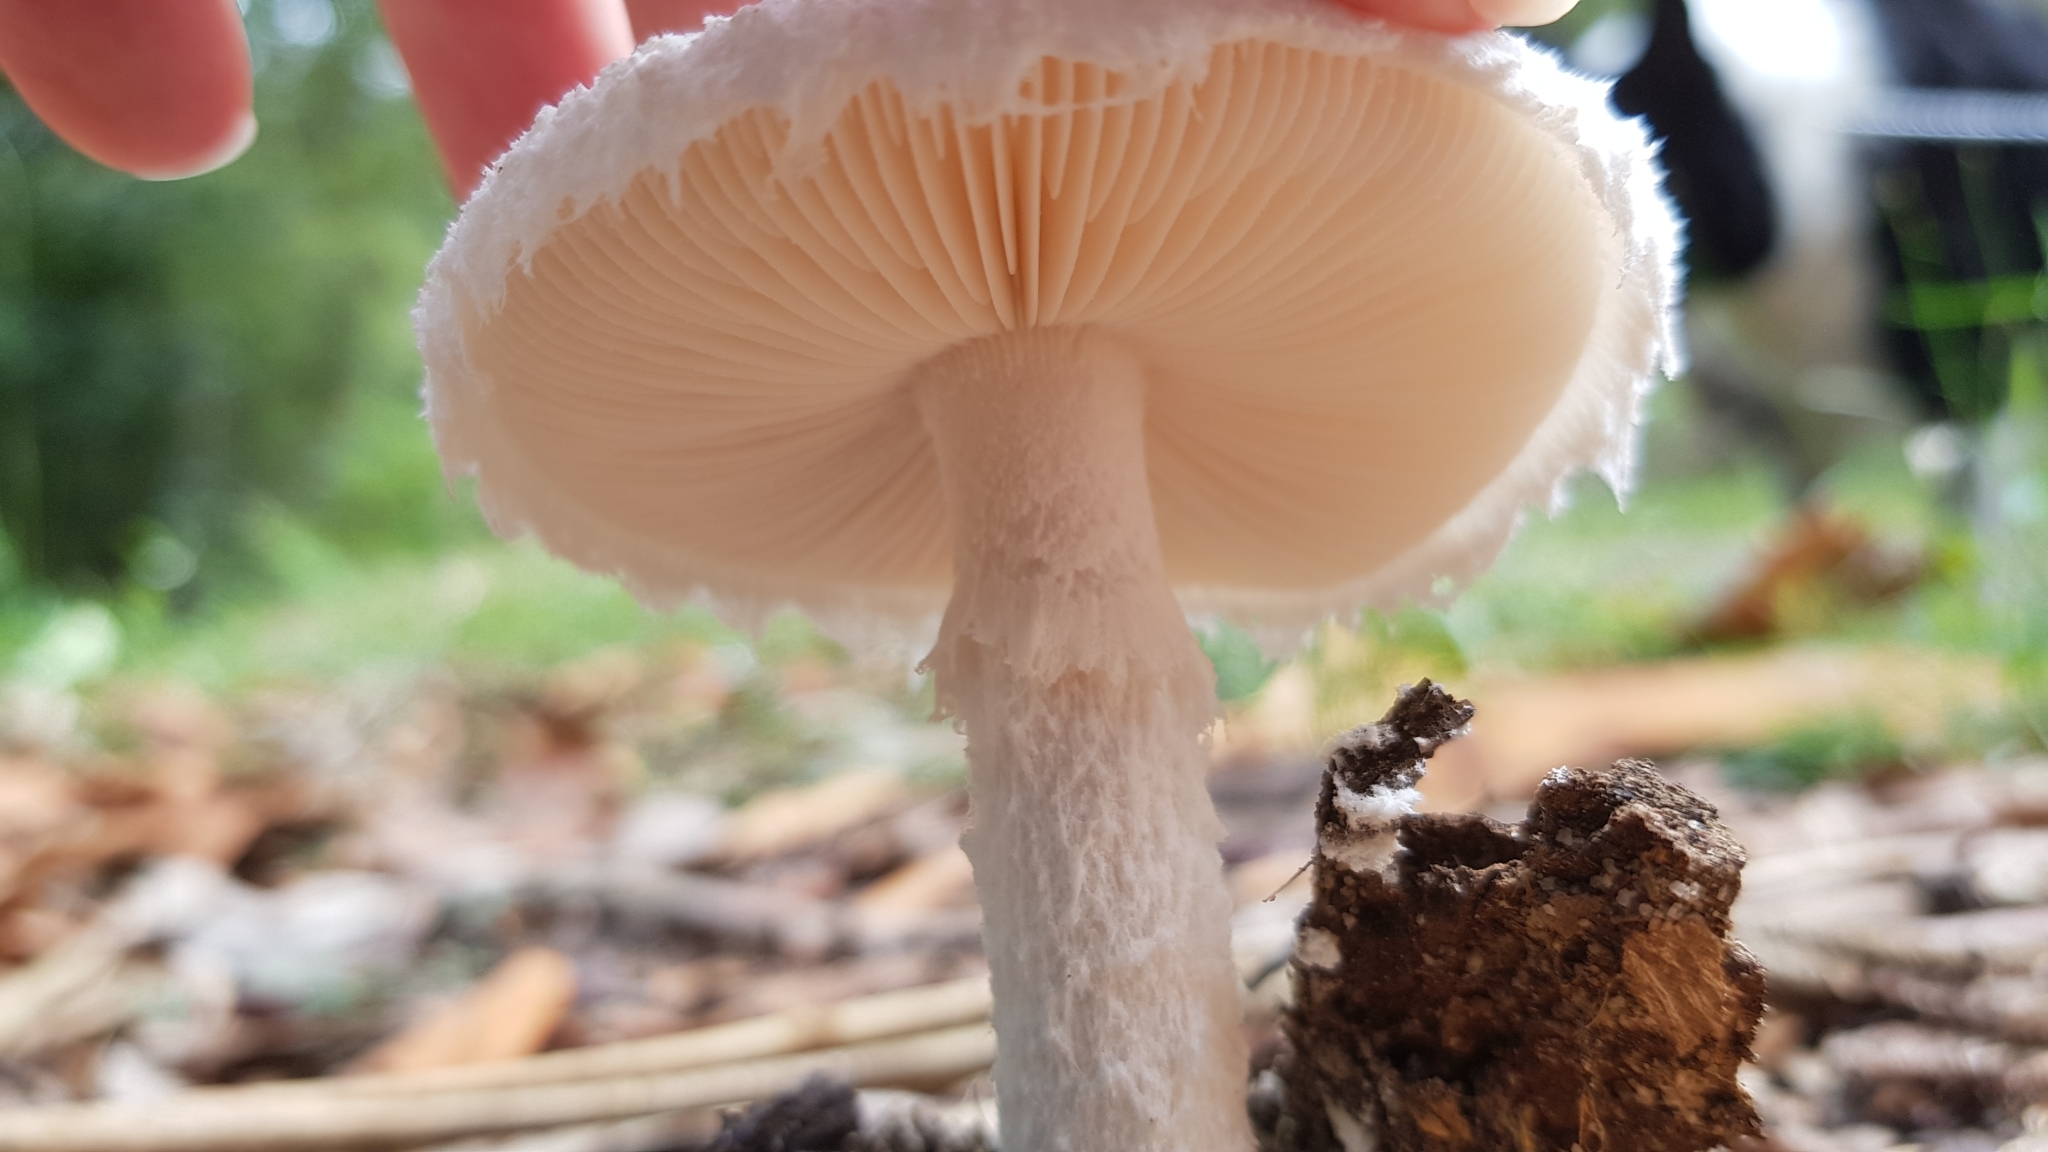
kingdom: Fungi
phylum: Basidiomycota
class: Agaricomycetes
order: Agaricales
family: Amanitaceae
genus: Amanita
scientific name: Amanita farinacea
